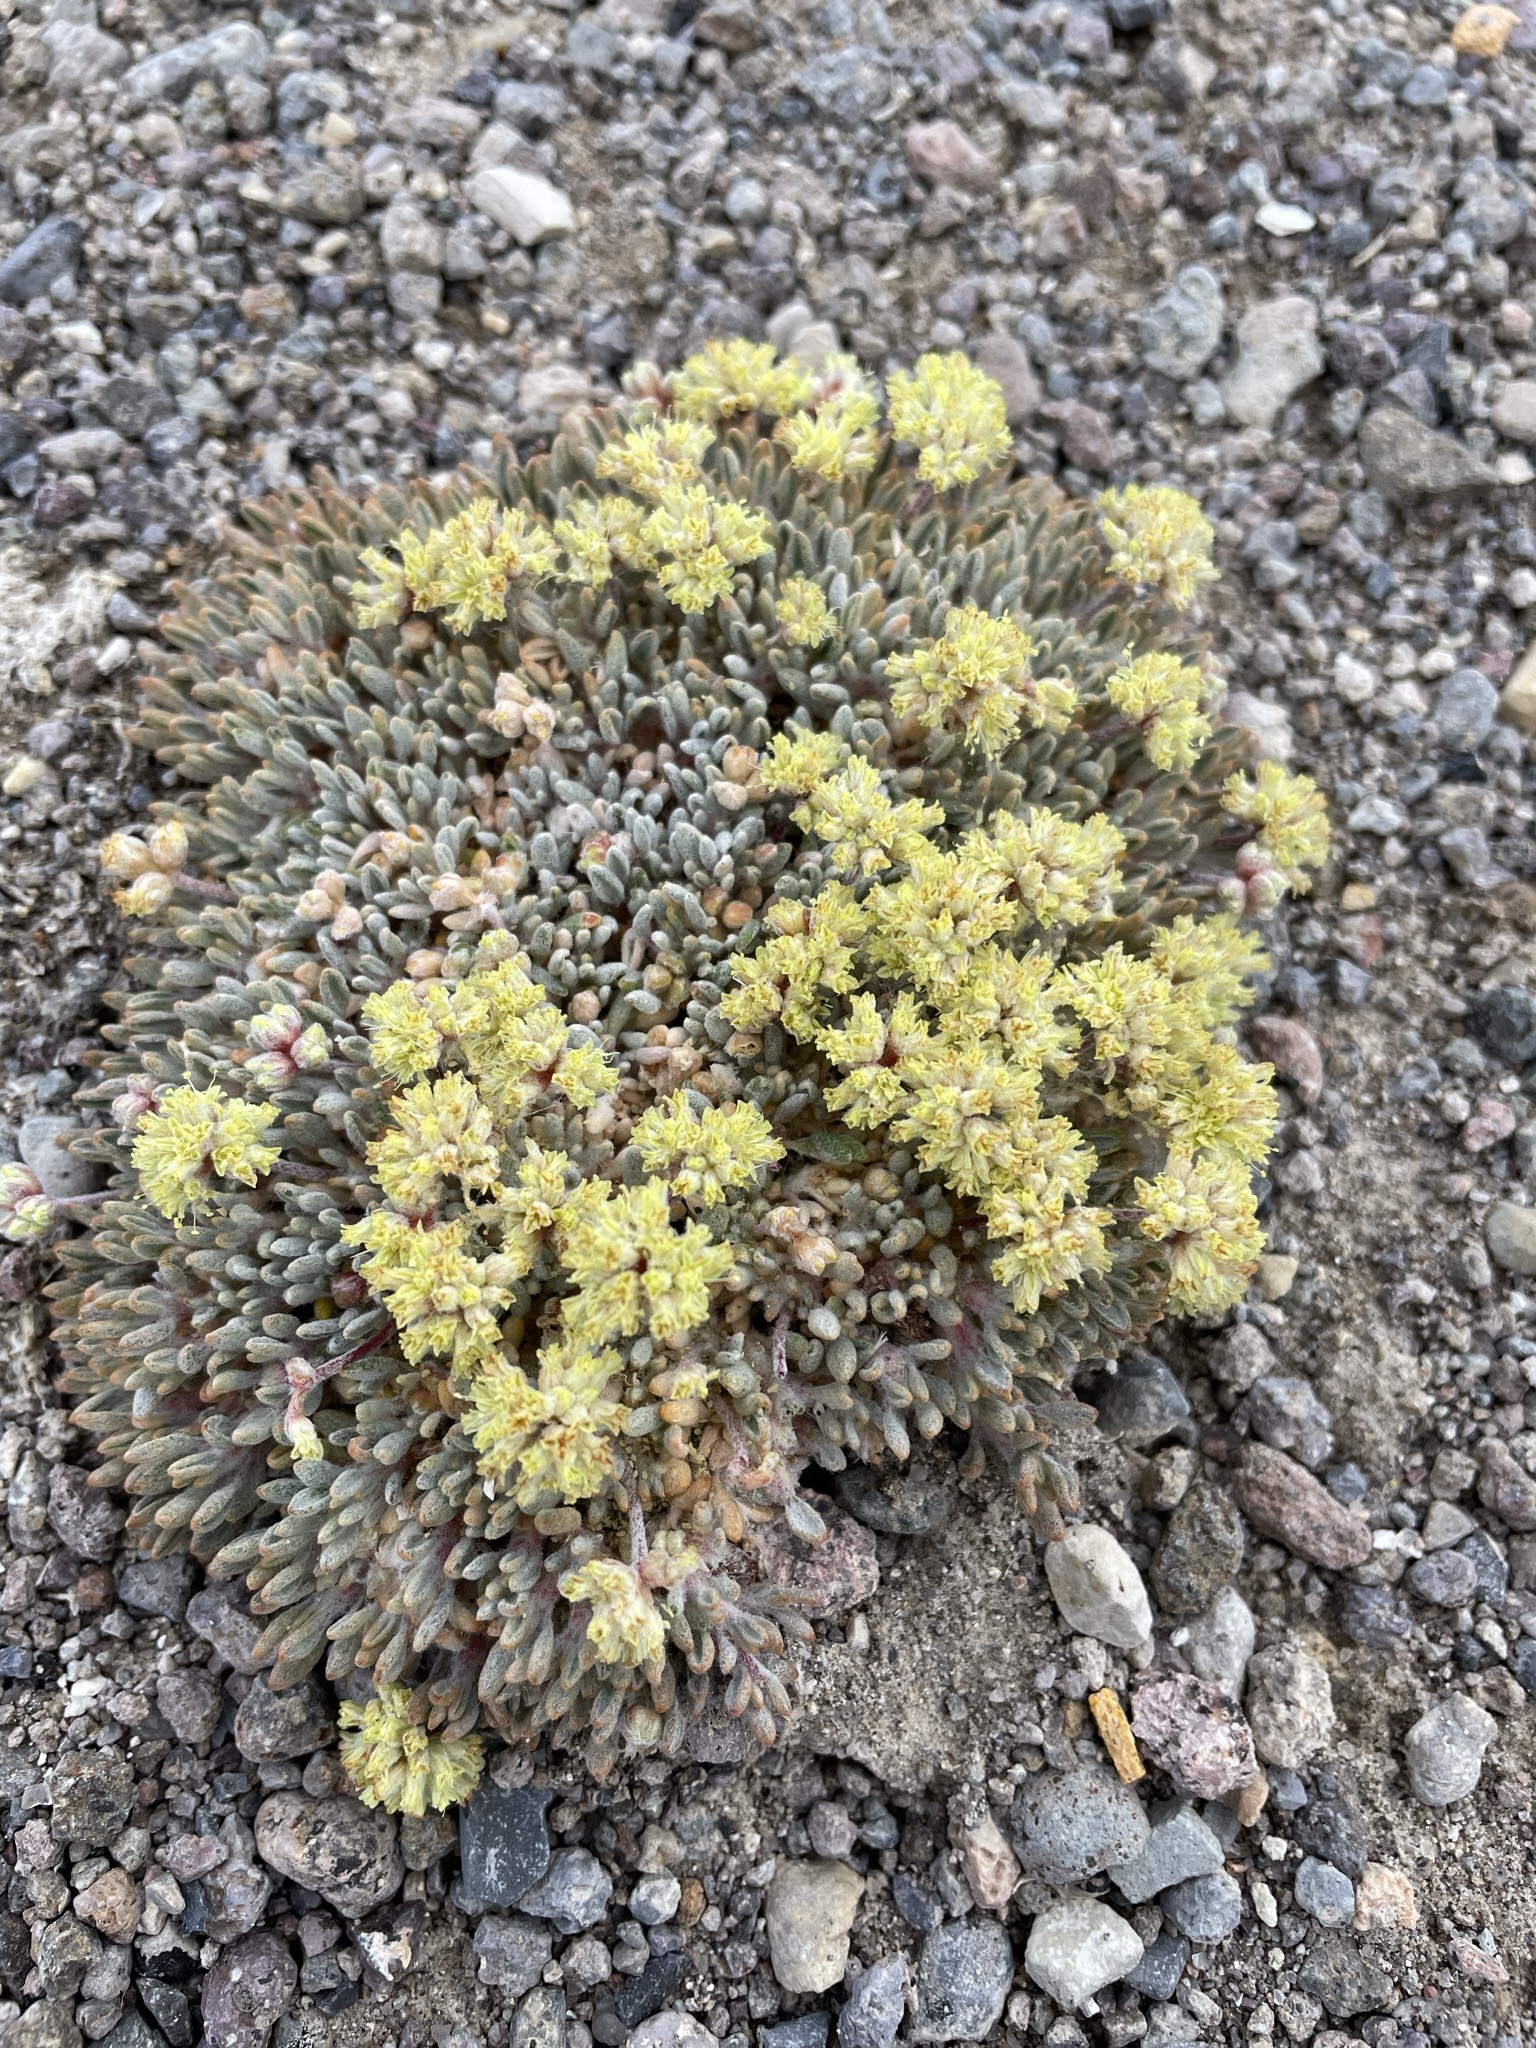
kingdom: Plantae
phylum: Tracheophyta
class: Magnoliopsida
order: Caryophyllales
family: Polygonaceae
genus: Eriogonum
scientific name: Eriogonum shockleyi
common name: Shockley's wild buckwheat
